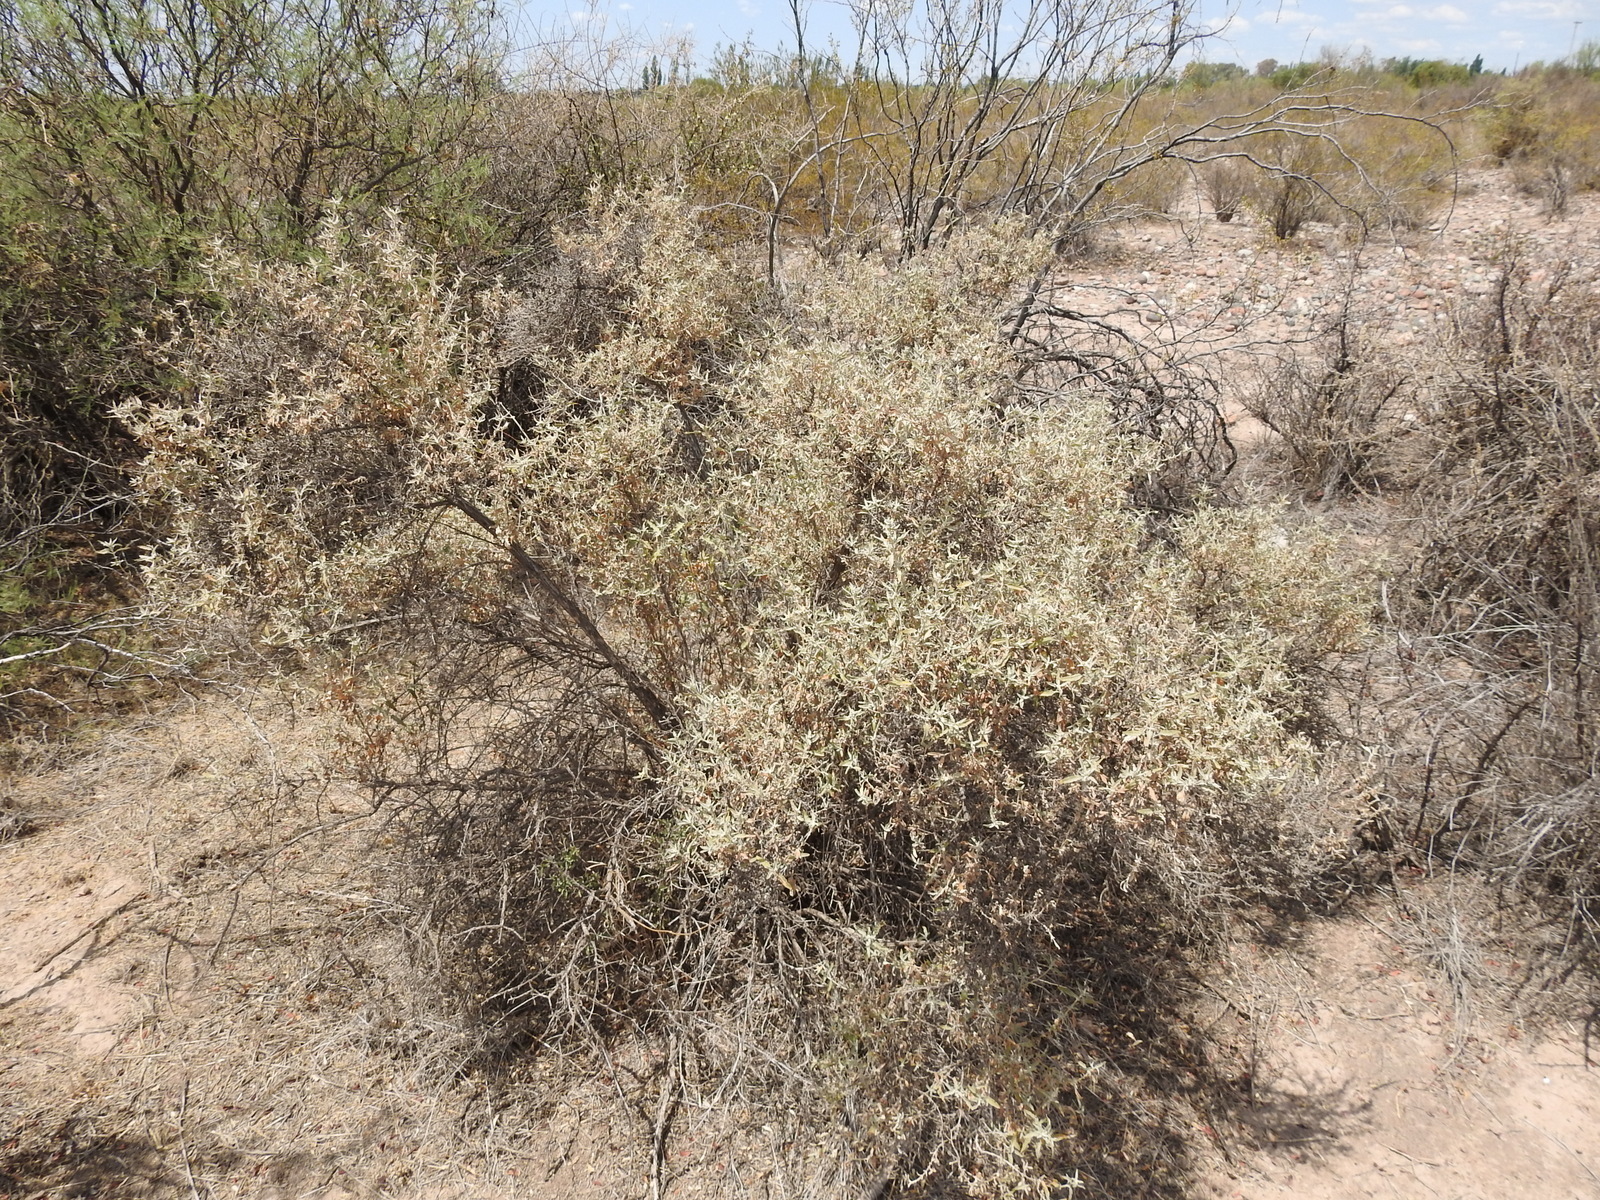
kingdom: Plantae
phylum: Tracheophyta
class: Magnoliopsida
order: Lamiales
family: Scrophulariaceae
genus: Buddleja
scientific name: Buddleja mendozensis
